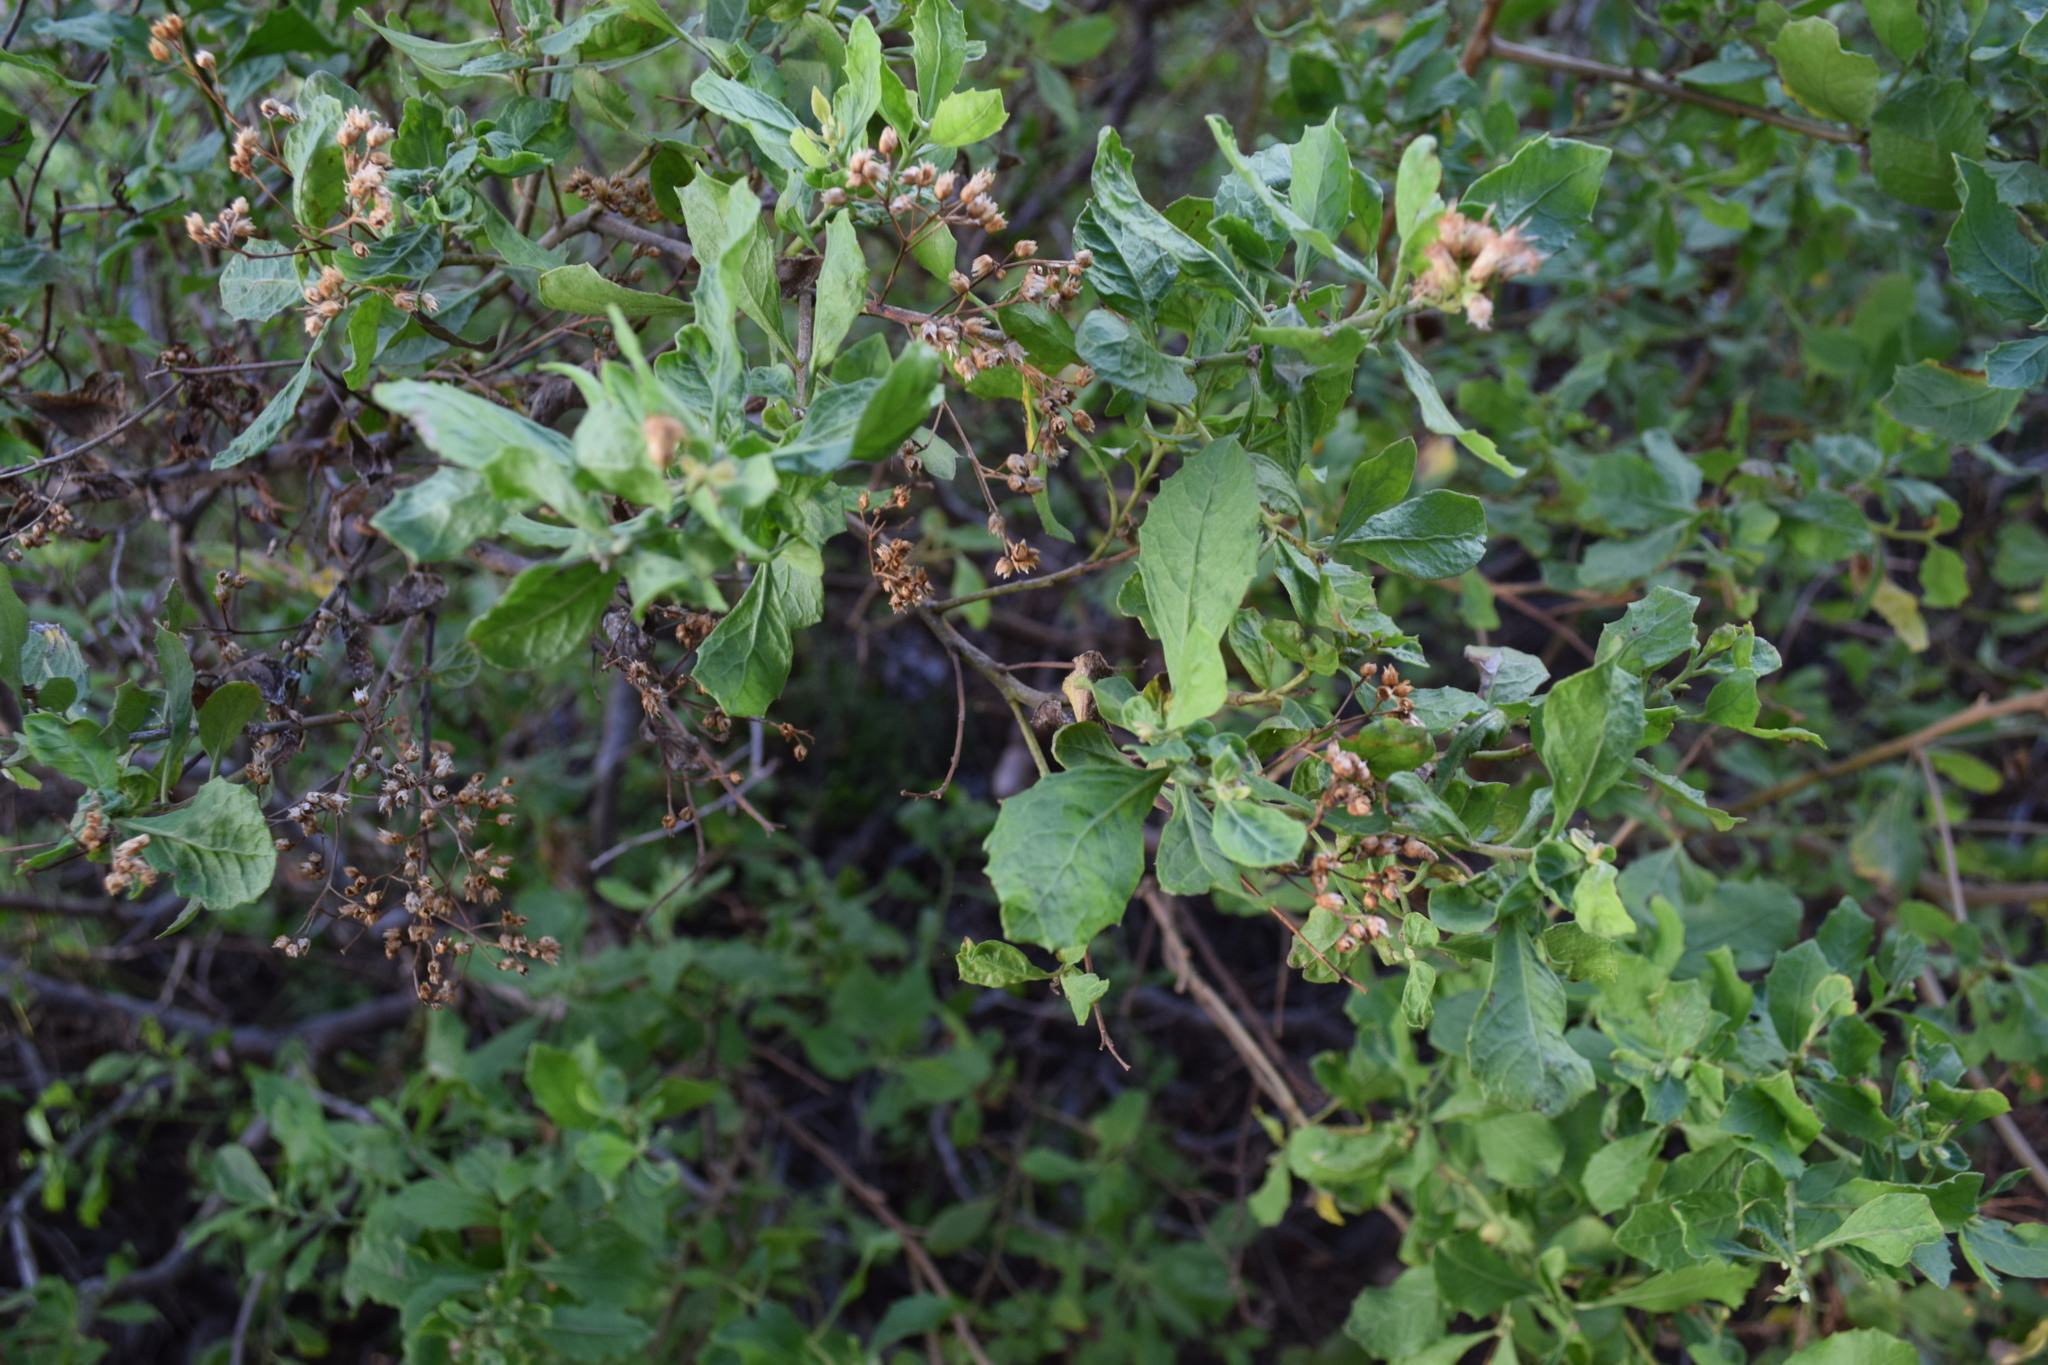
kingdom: Plantae
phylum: Tracheophyta
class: Magnoliopsida
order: Asterales
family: Asteraceae
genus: Pluchea
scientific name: Pluchea indica
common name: Indian fleabane
